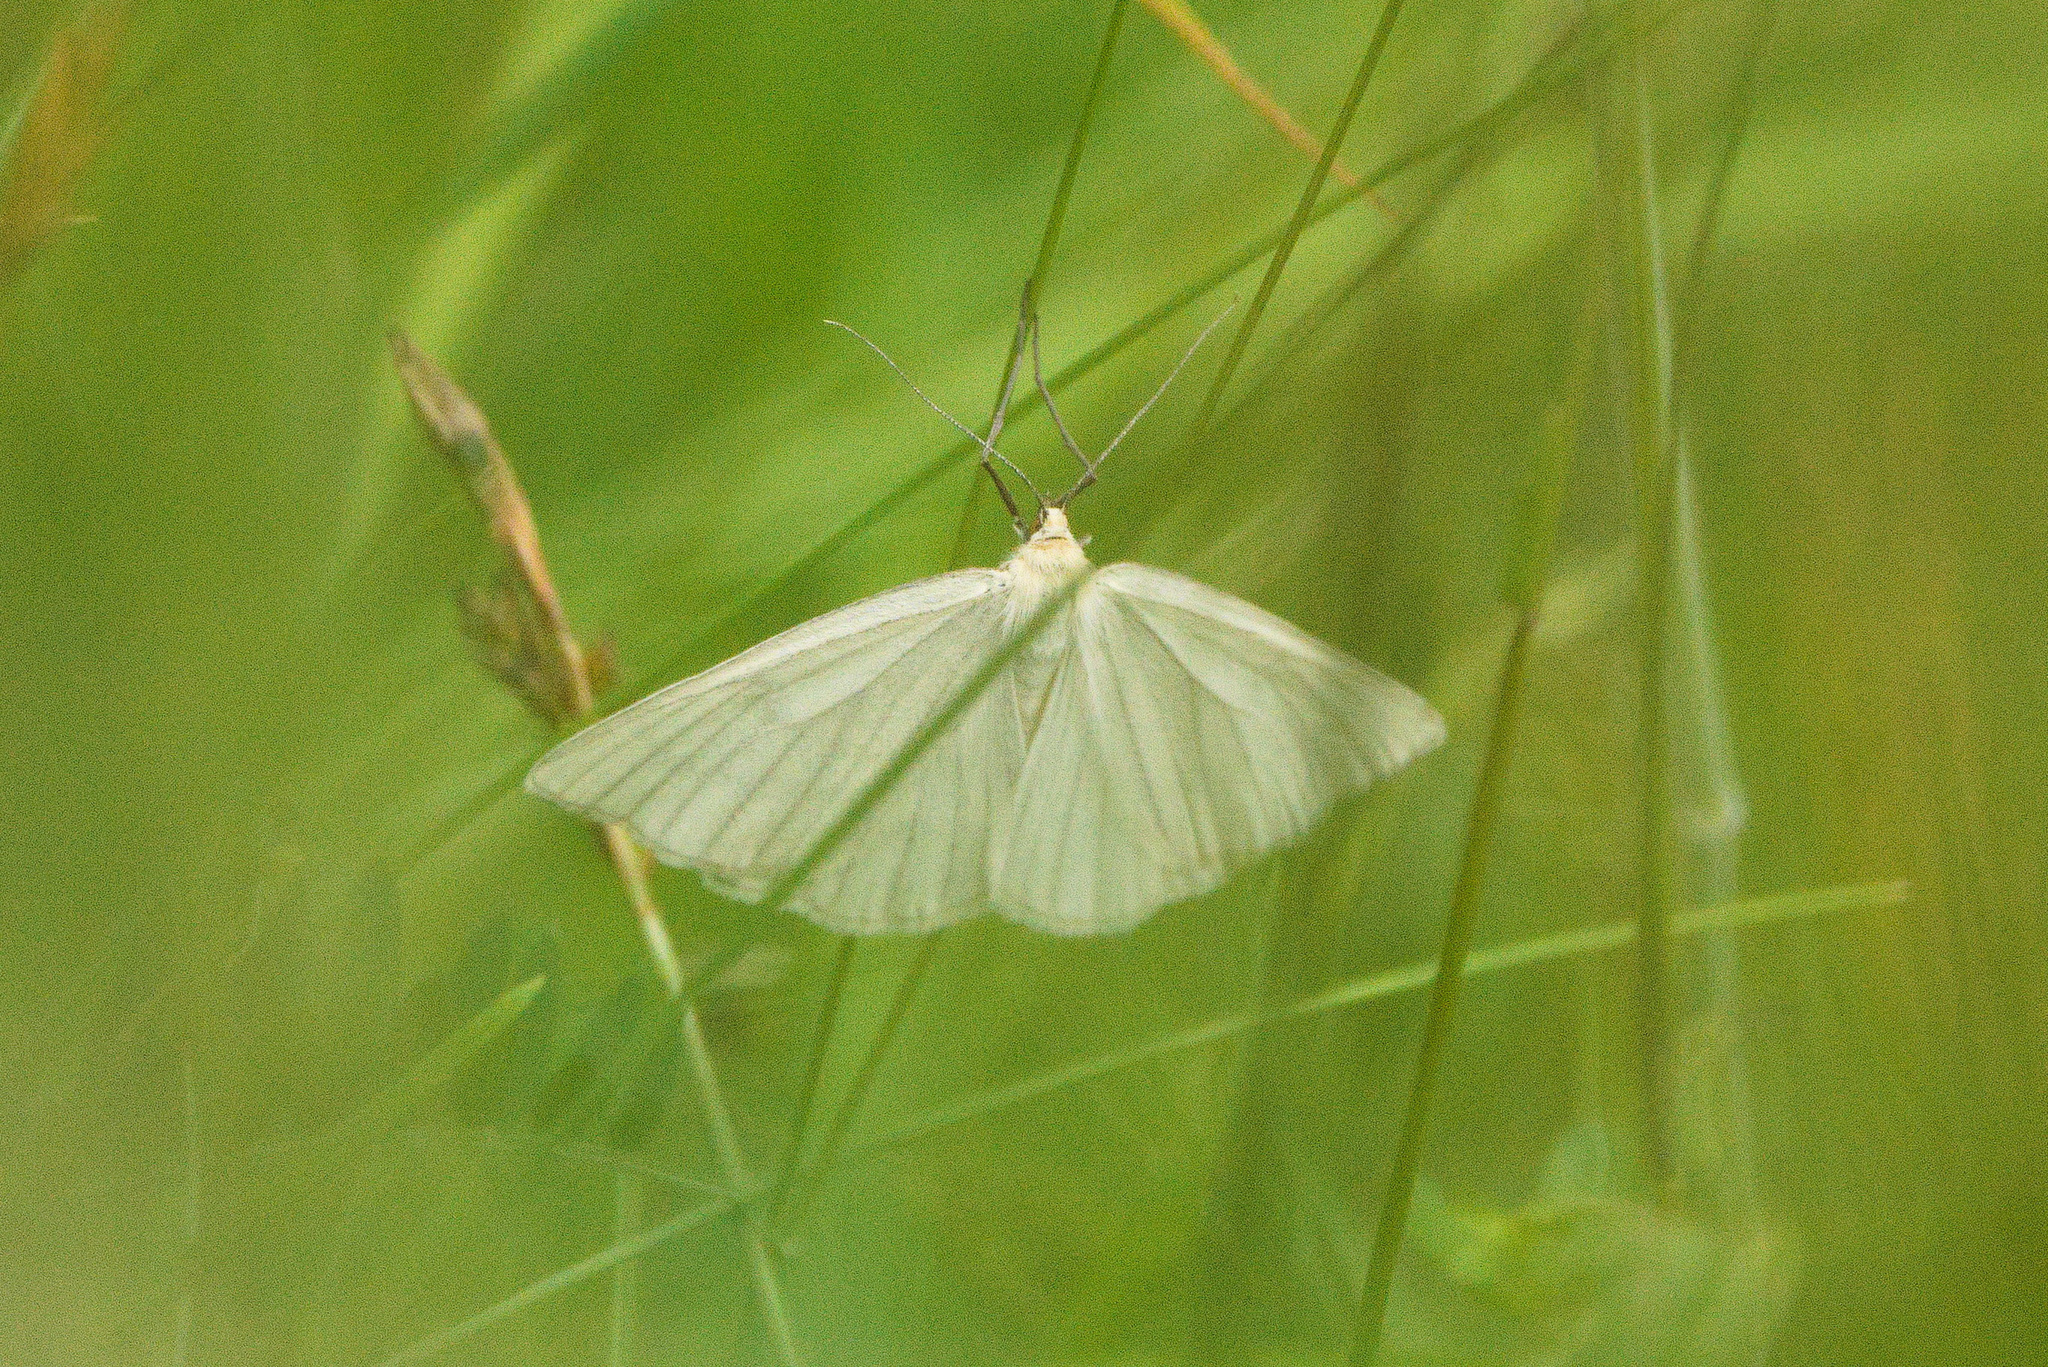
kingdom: Animalia
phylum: Arthropoda
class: Insecta
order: Lepidoptera
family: Geometridae
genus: Siona
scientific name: Siona lineata
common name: Black-veined moth
